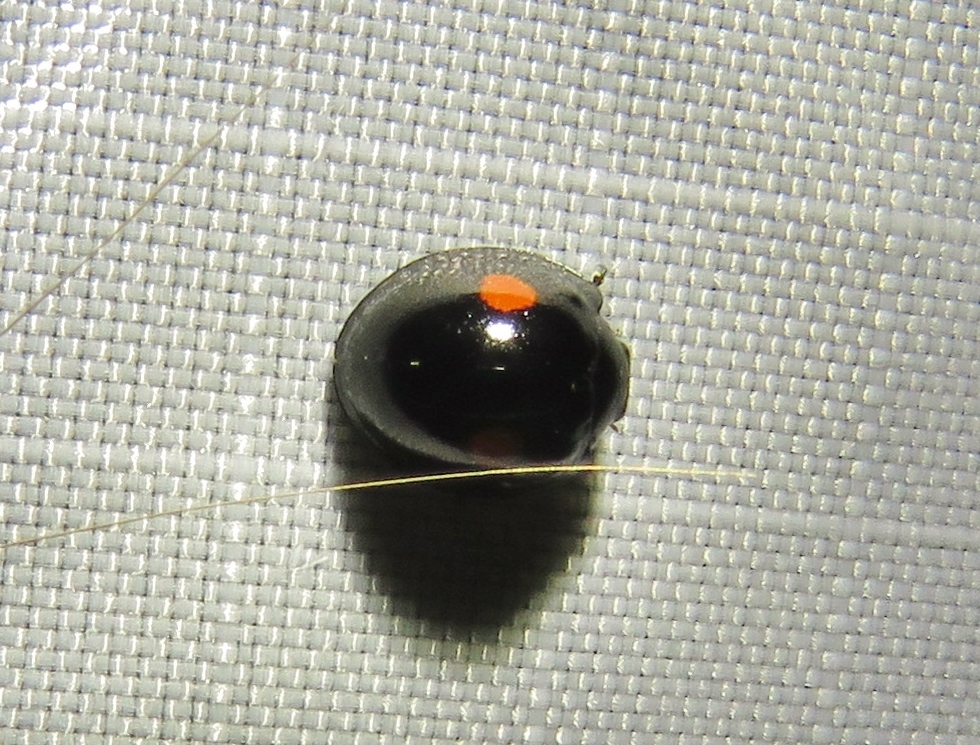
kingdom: Animalia
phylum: Arthropoda
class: Insecta
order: Coleoptera
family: Coccinellidae
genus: Chilocorus
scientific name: Chilocorus stigma
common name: Twicestabbed lady beetle
